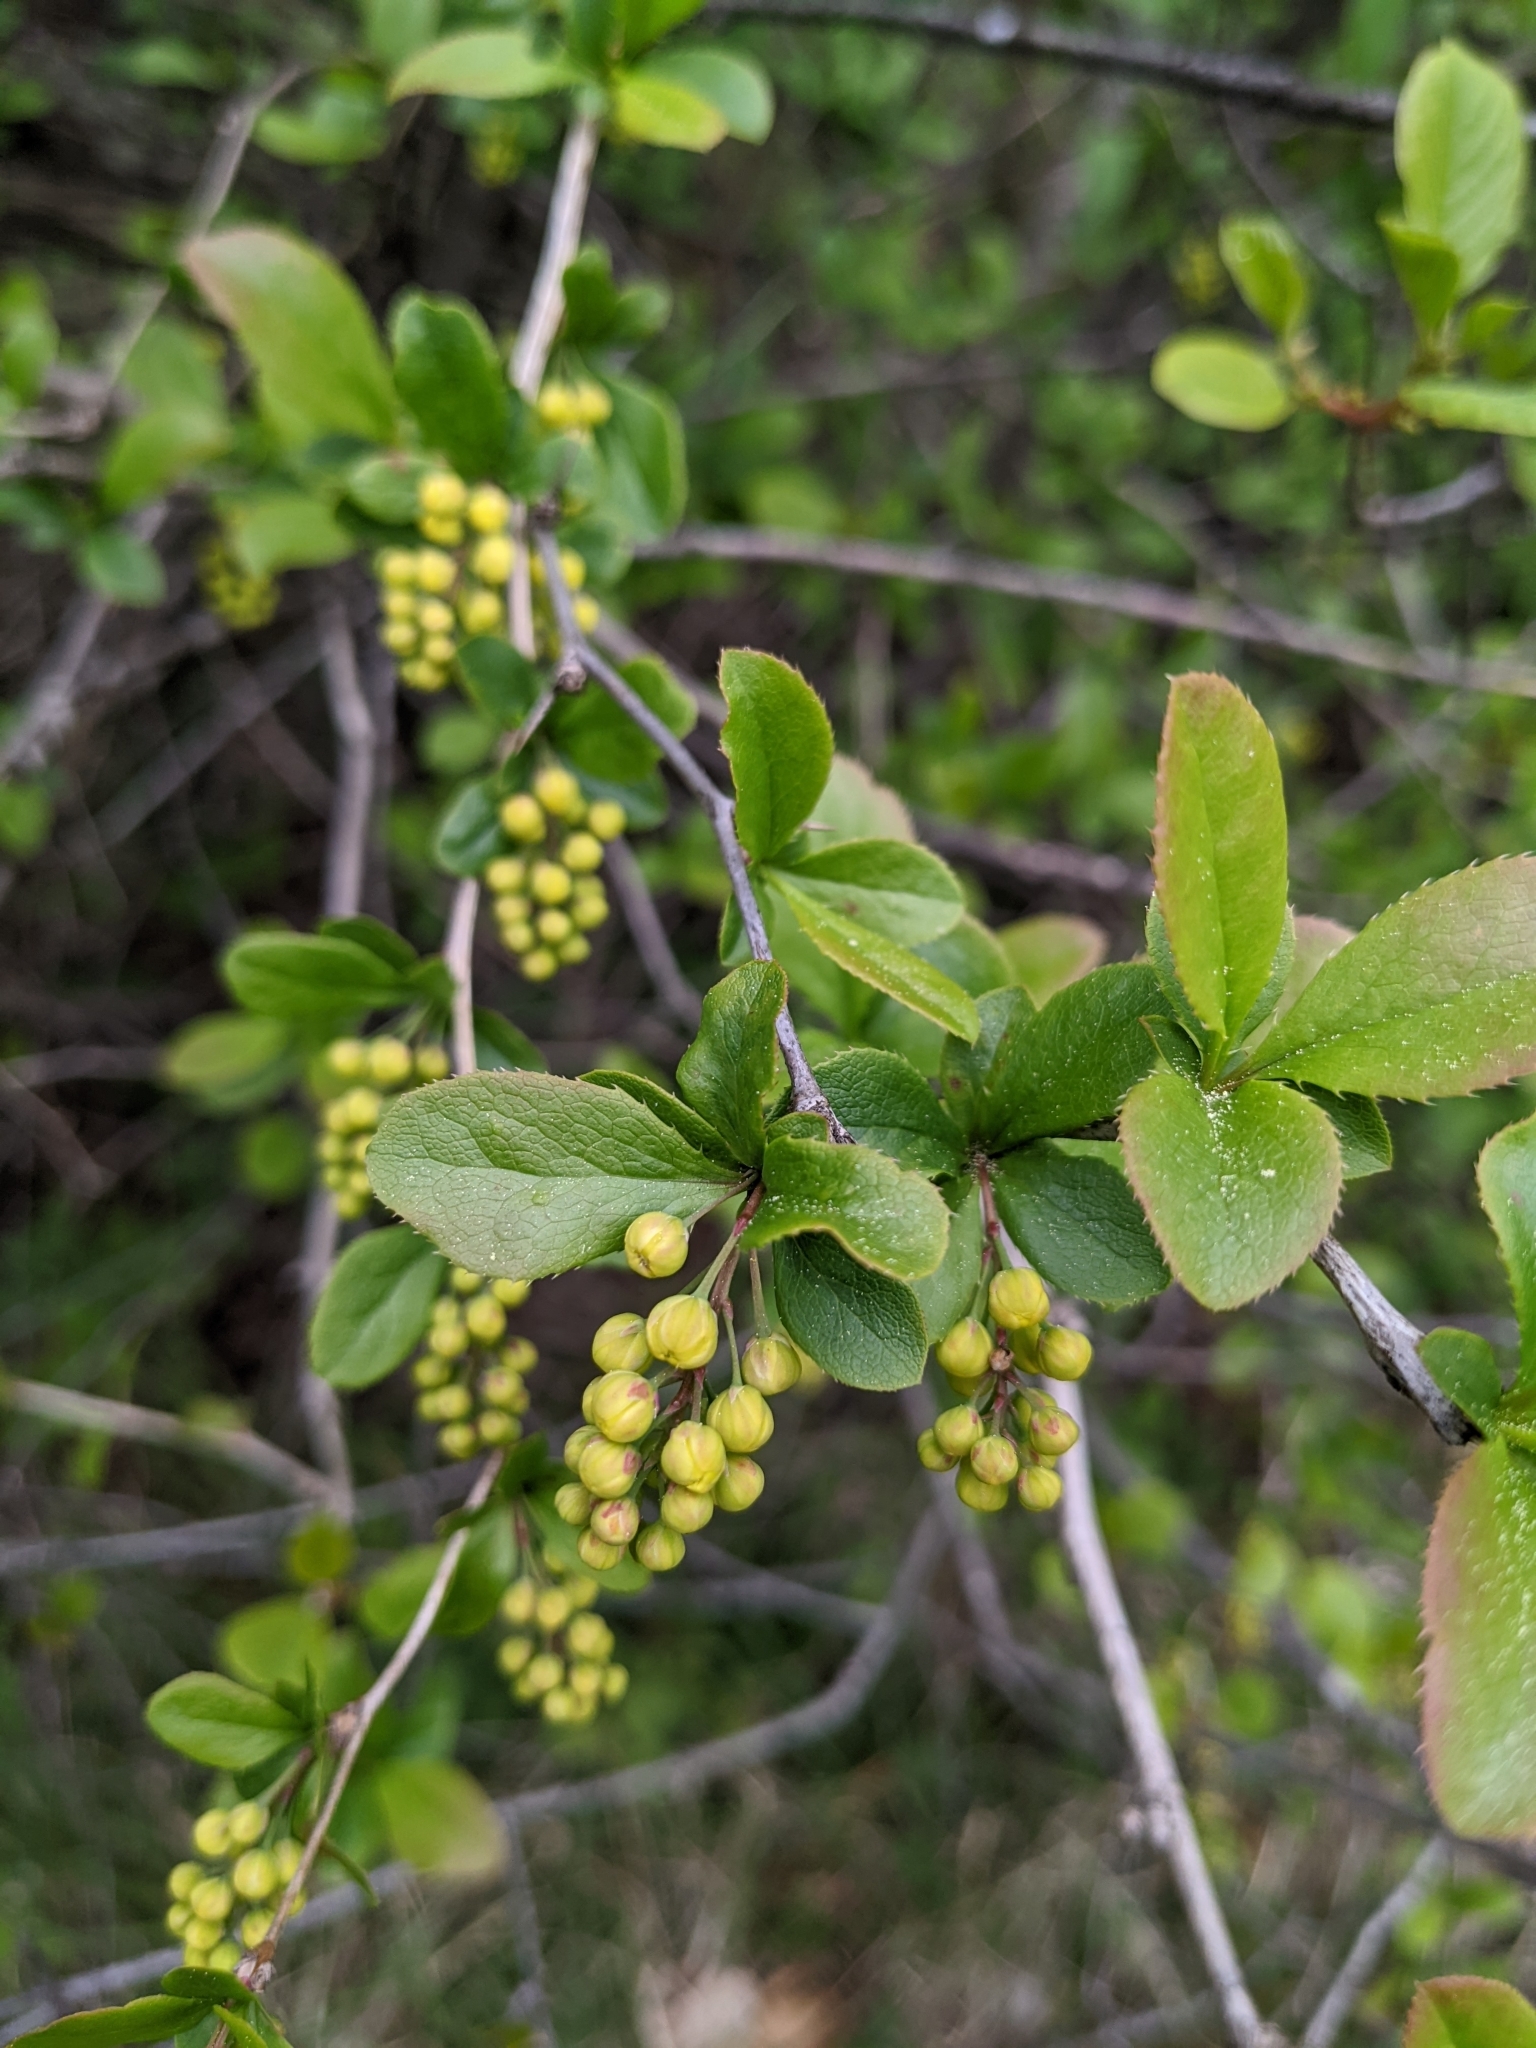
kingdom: Plantae
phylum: Tracheophyta
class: Magnoliopsida
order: Ranunculales
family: Berberidaceae
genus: Berberis
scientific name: Berberis vulgaris
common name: Barberry
